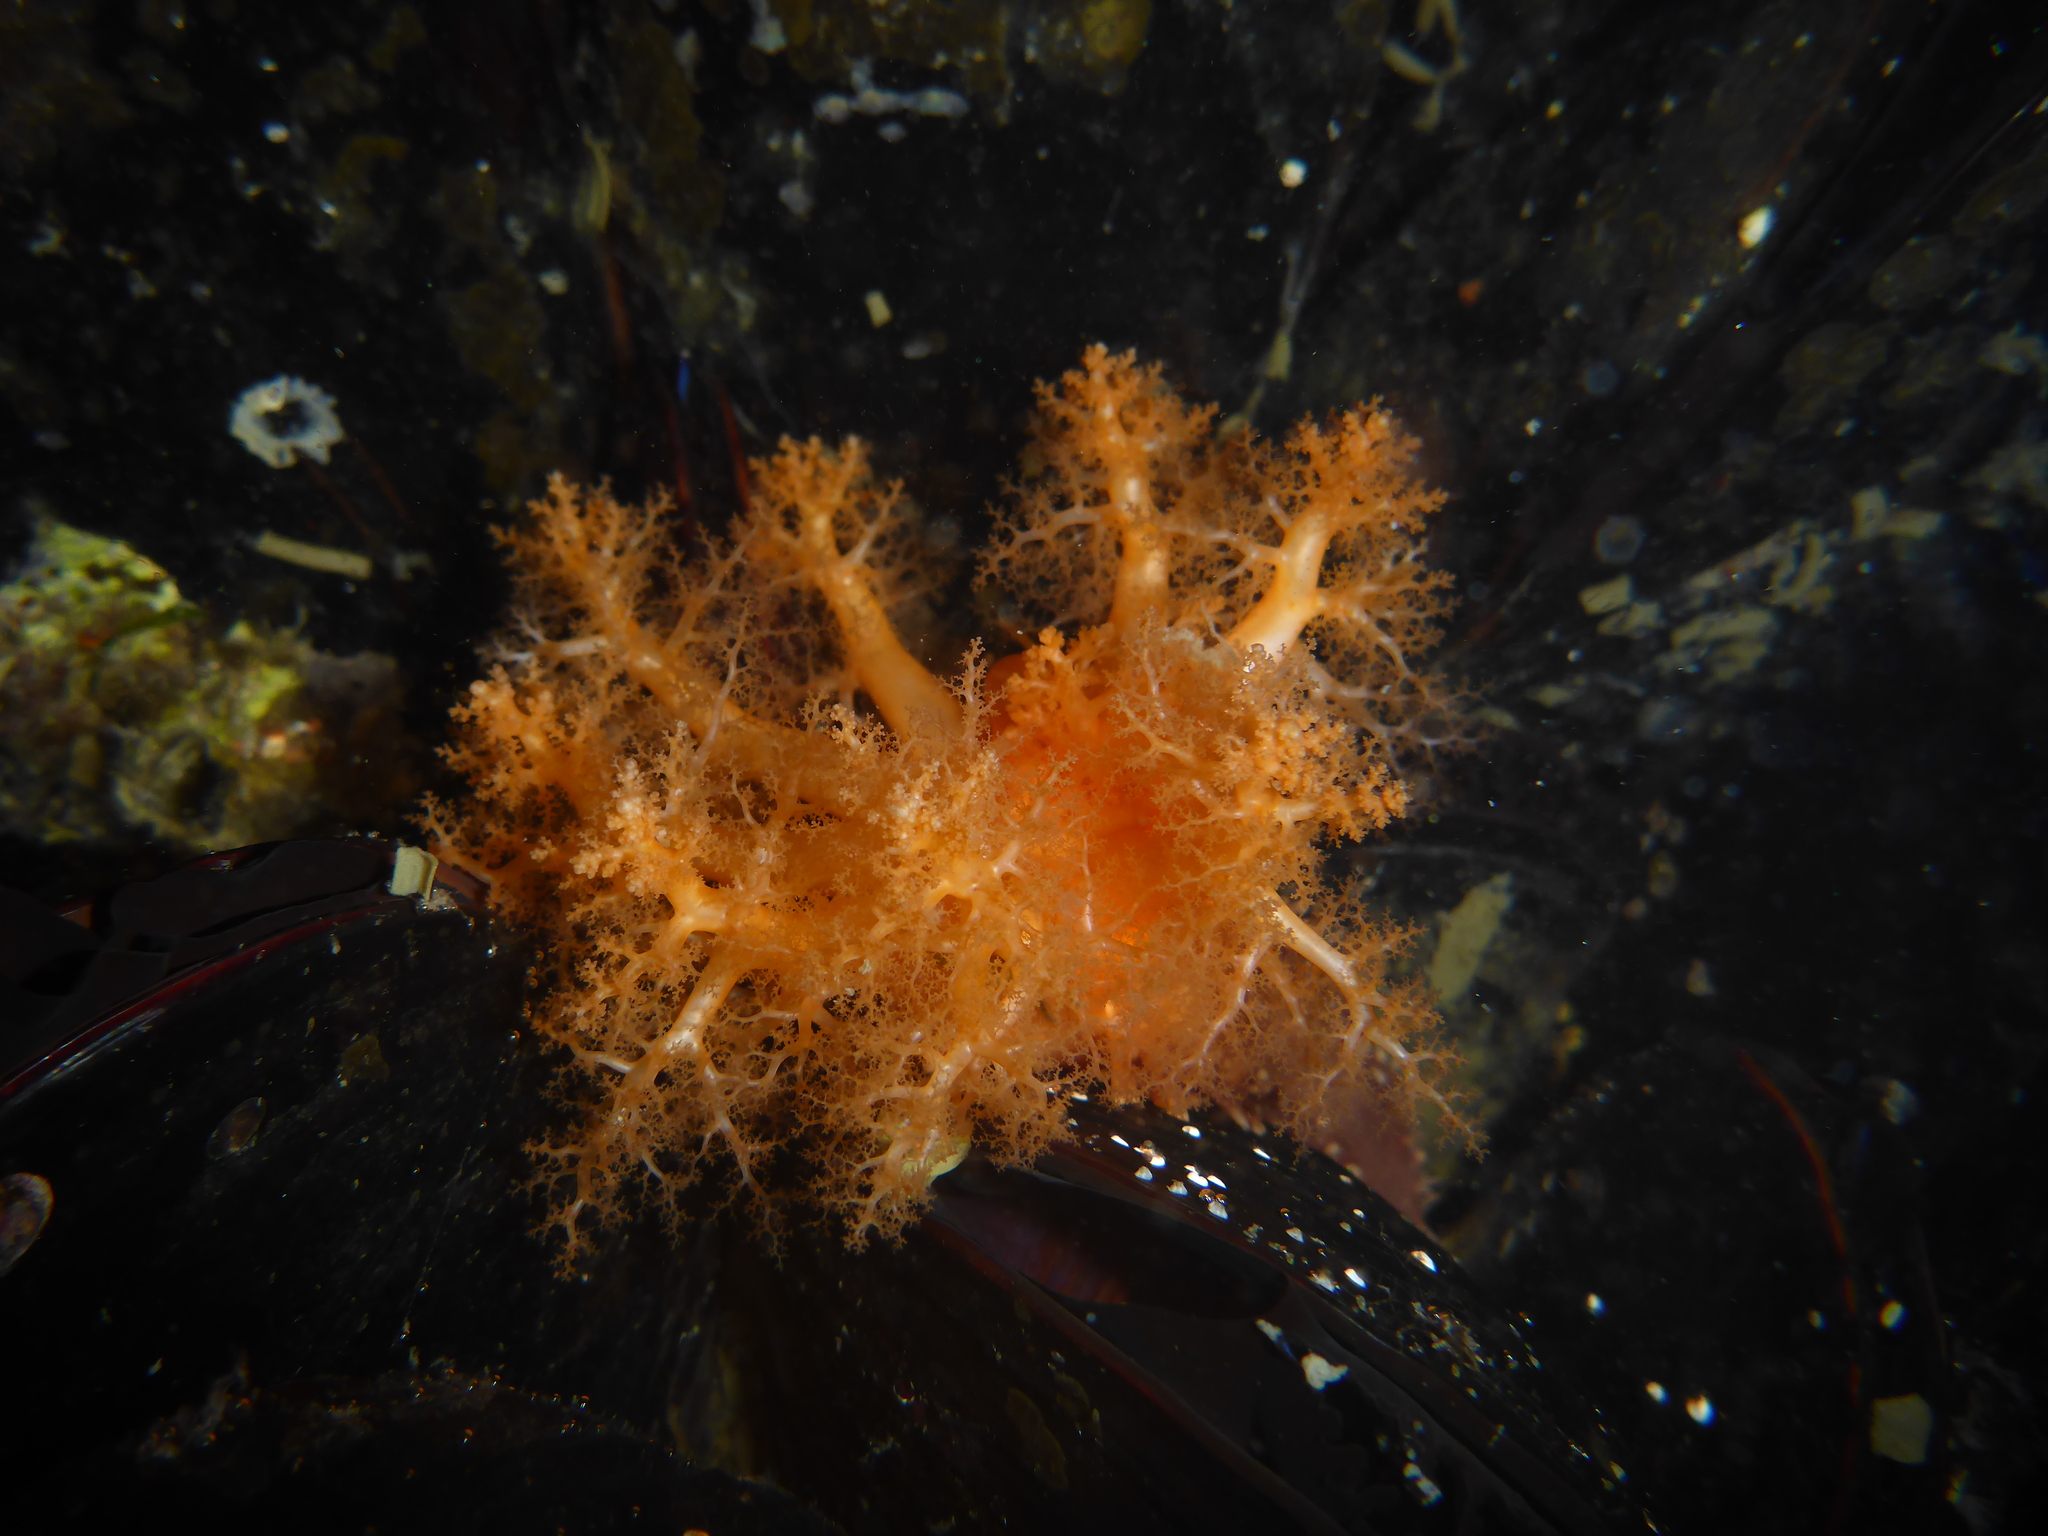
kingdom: Animalia
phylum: Echinodermata
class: Holothuroidea
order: Dendrochirotida
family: Cucumariidae
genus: Cucumaria
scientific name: Cucumaria miniata
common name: Orange sea cucumber
